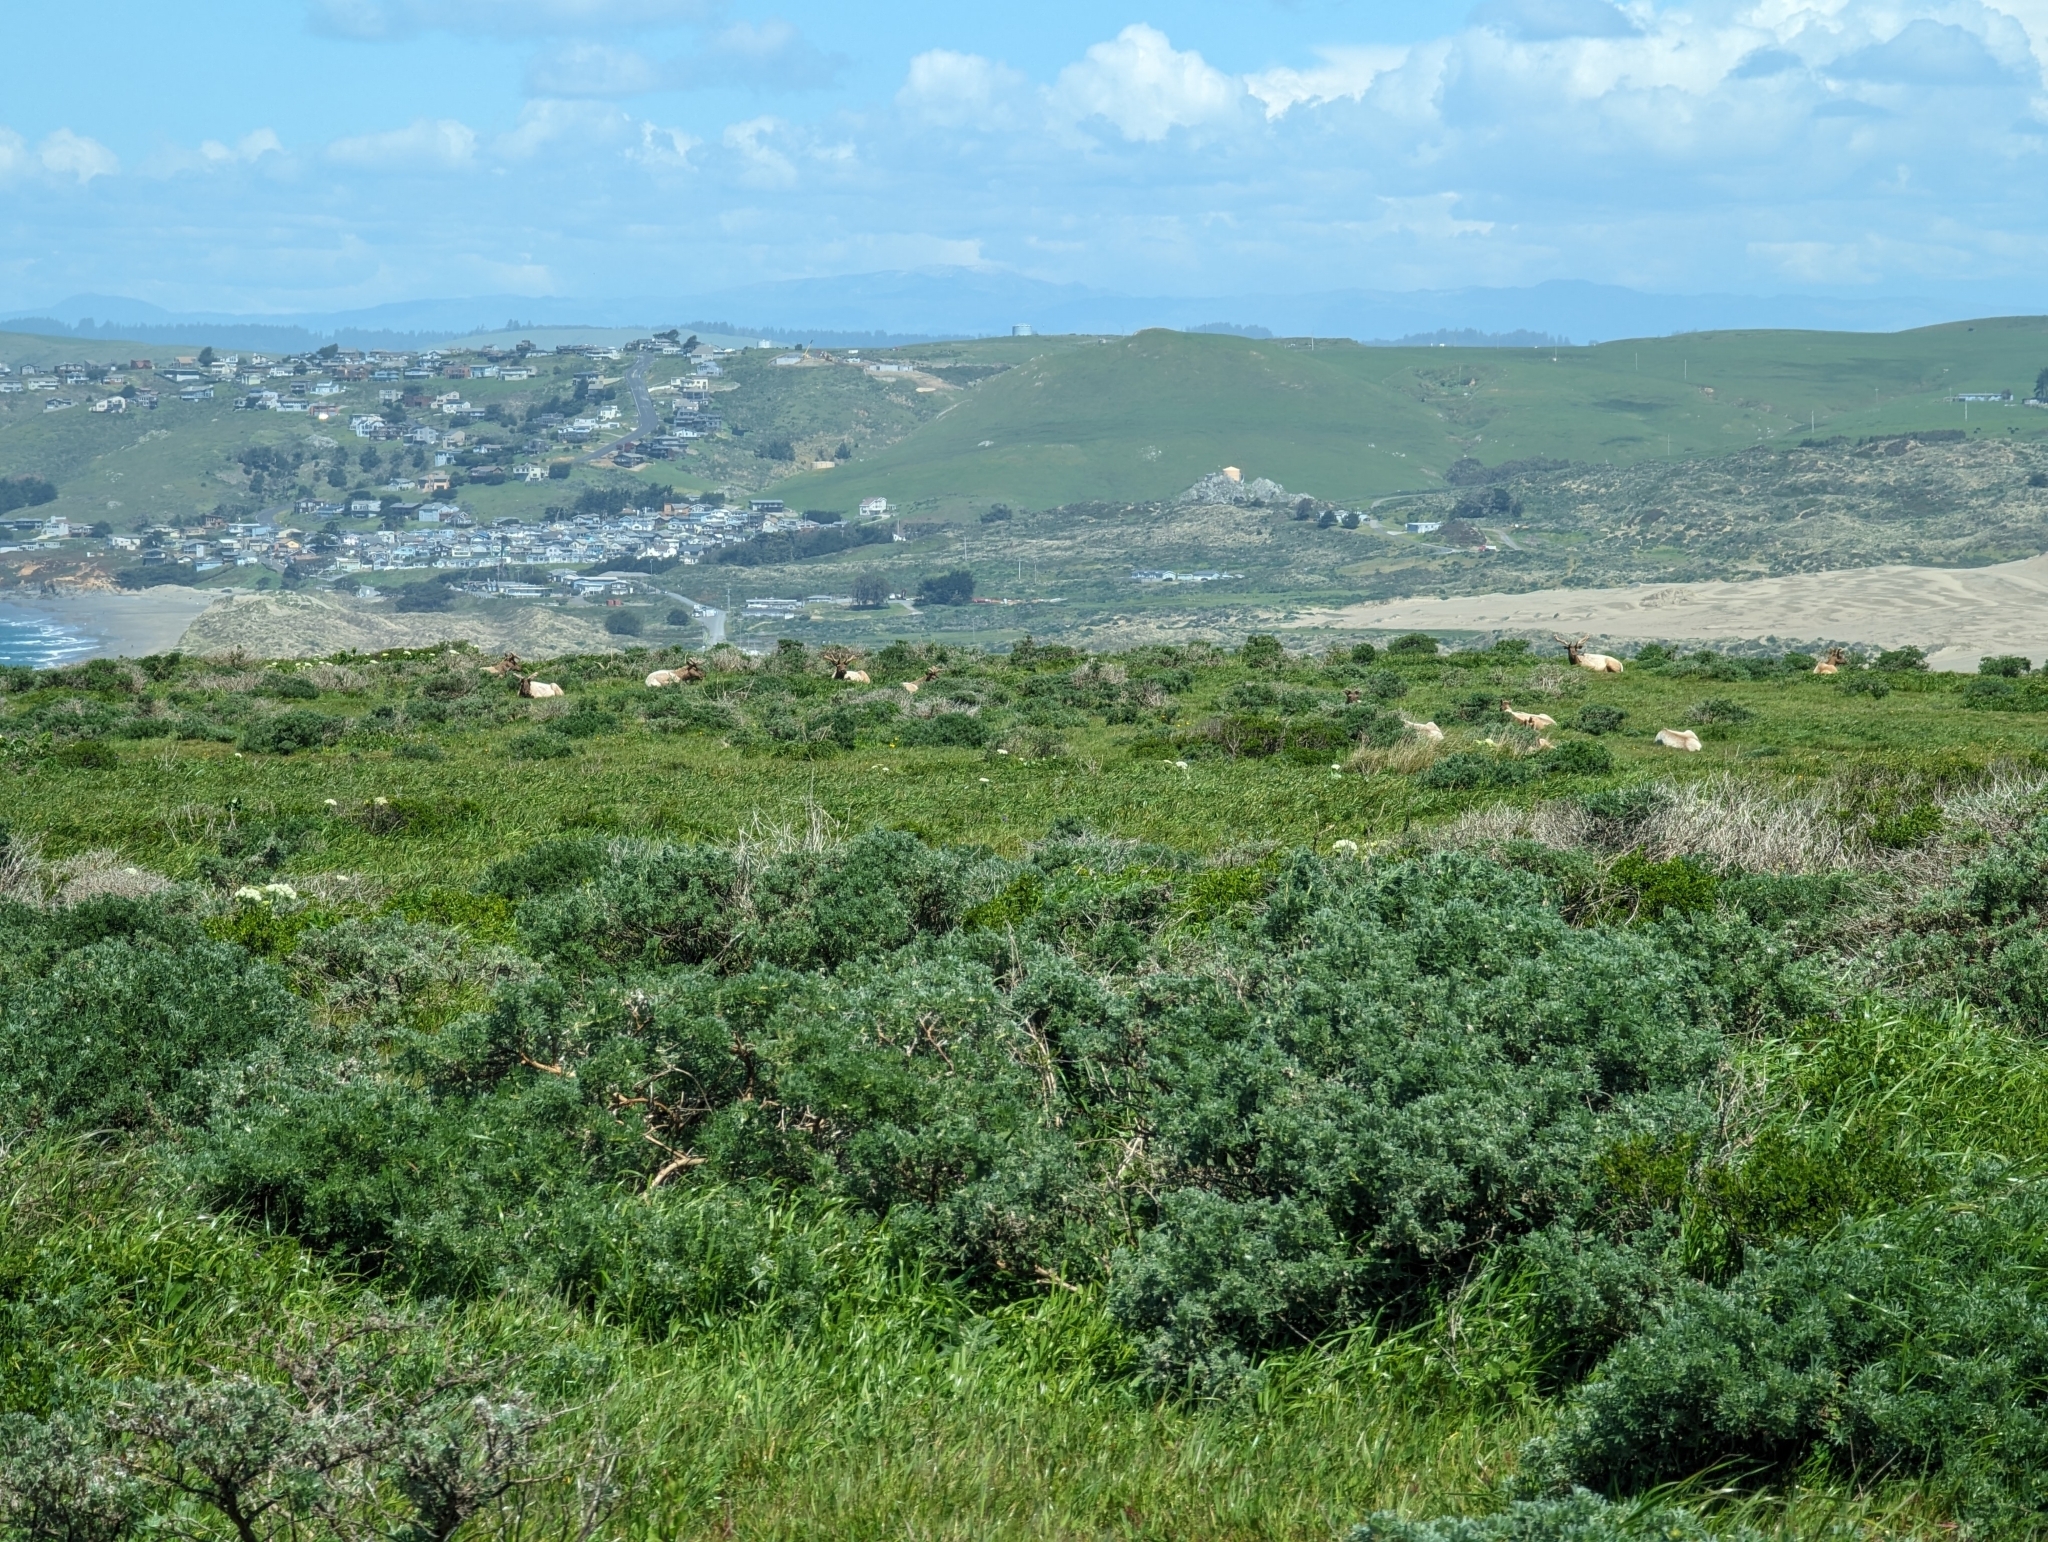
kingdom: Animalia
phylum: Chordata
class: Mammalia
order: Artiodactyla
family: Cervidae
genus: Cervus
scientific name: Cervus elaphus
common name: Red deer
